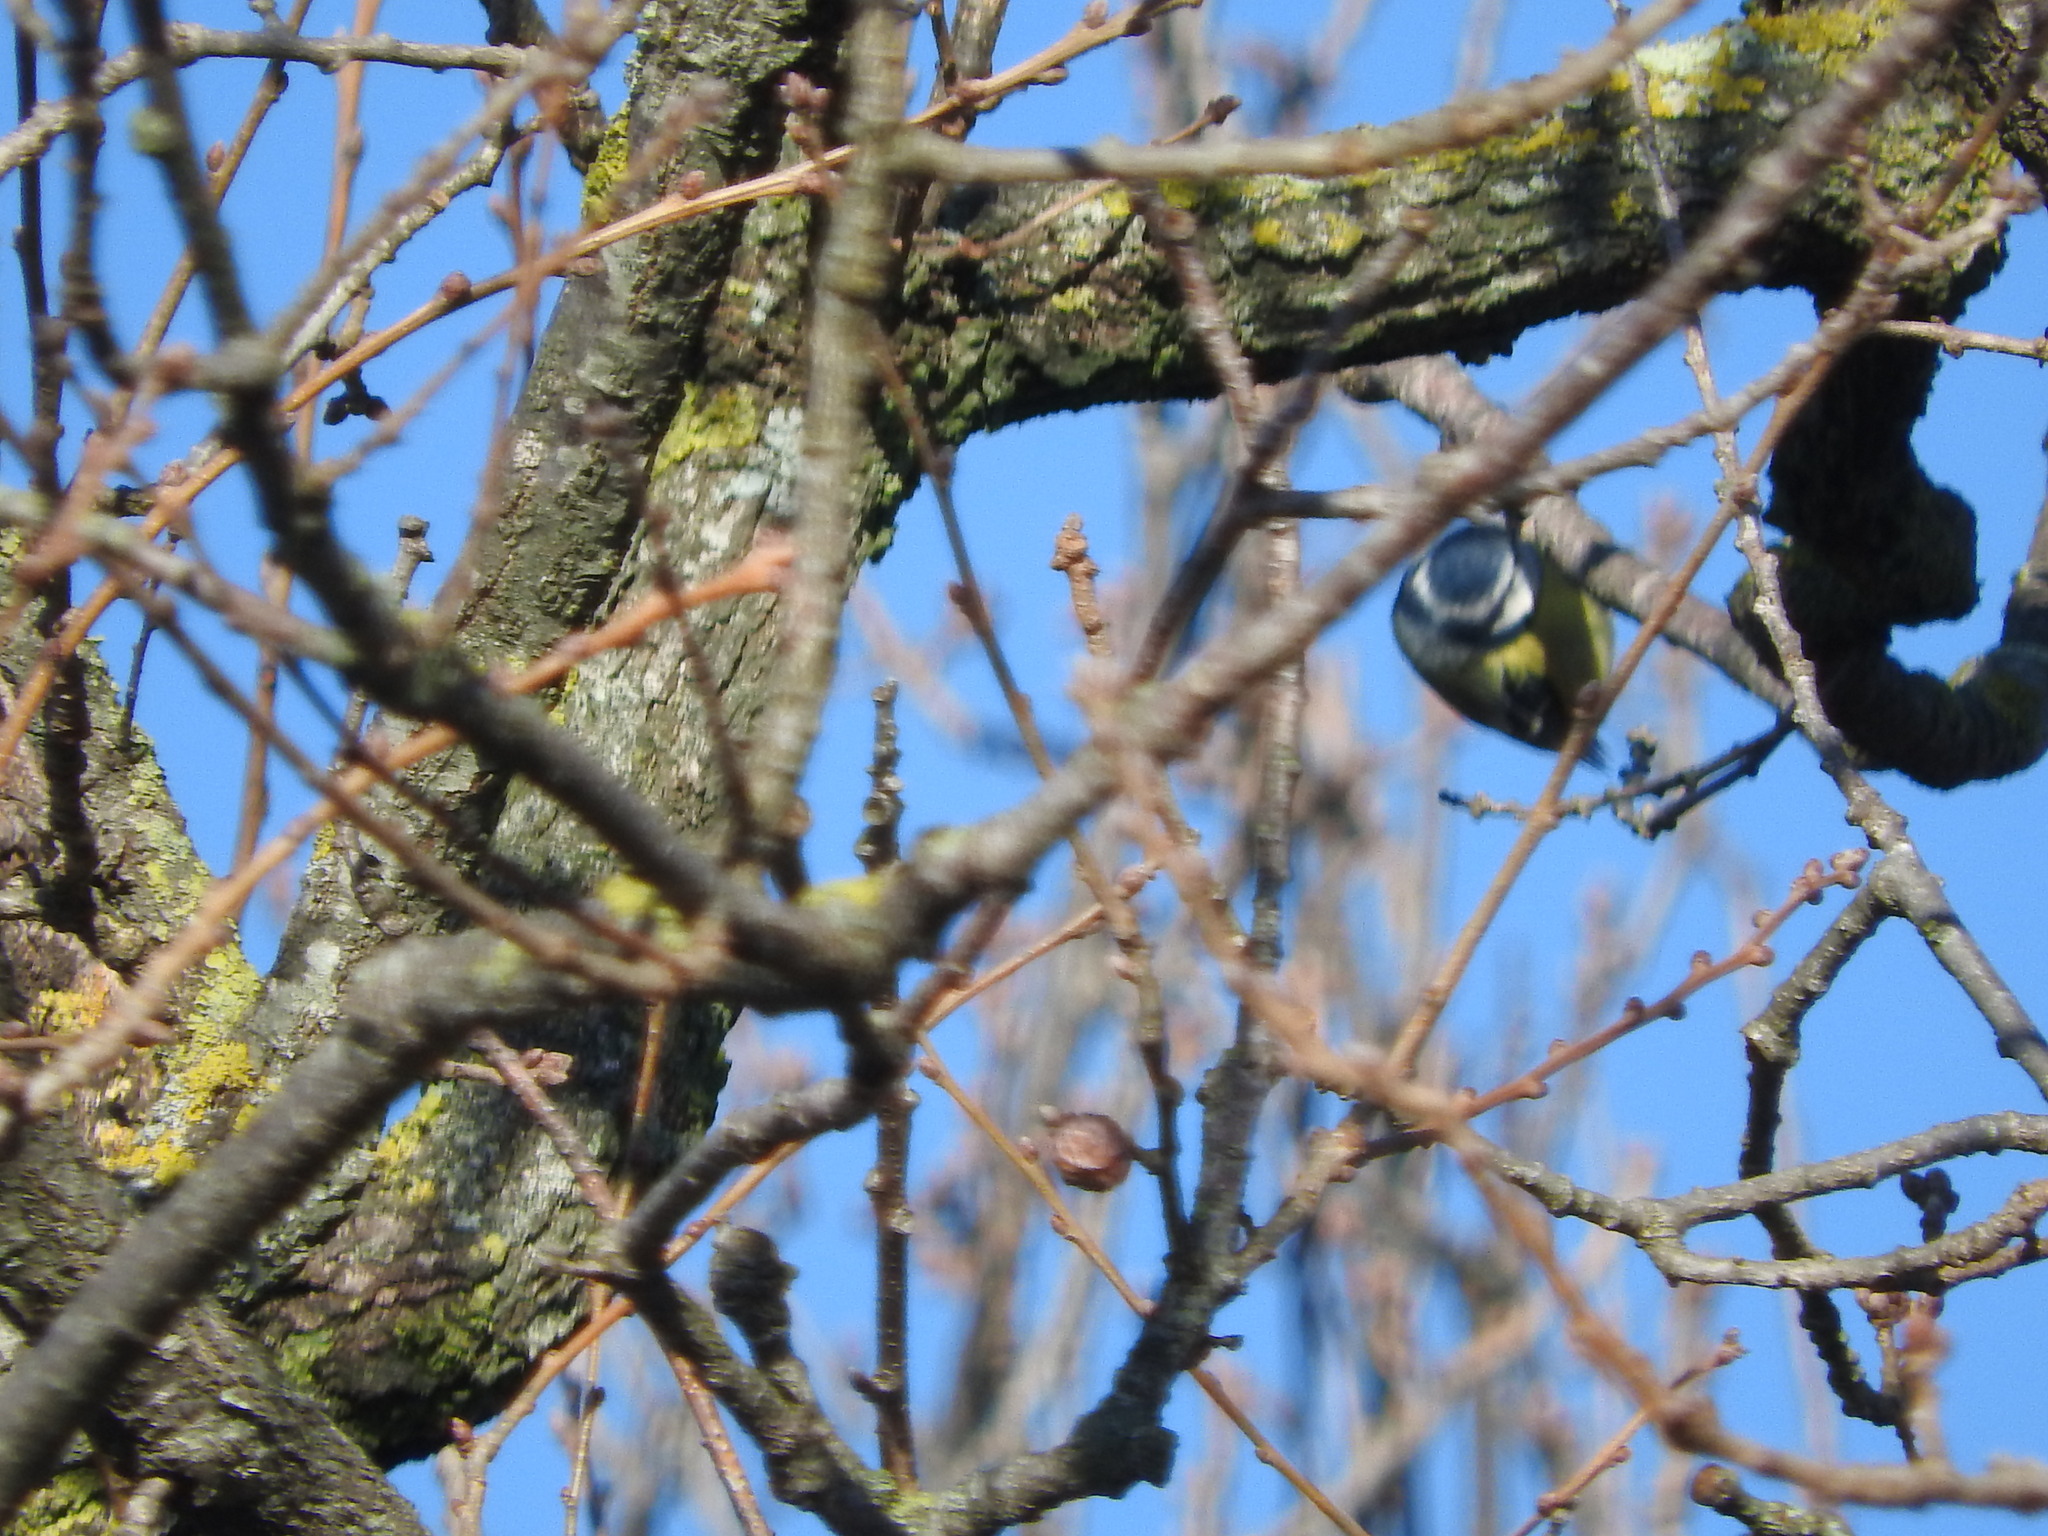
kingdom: Animalia
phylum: Chordata
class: Aves
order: Passeriformes
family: Paridae
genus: Cyanistes
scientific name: Cyanistes caeruleus
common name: Eurasian blue tit
